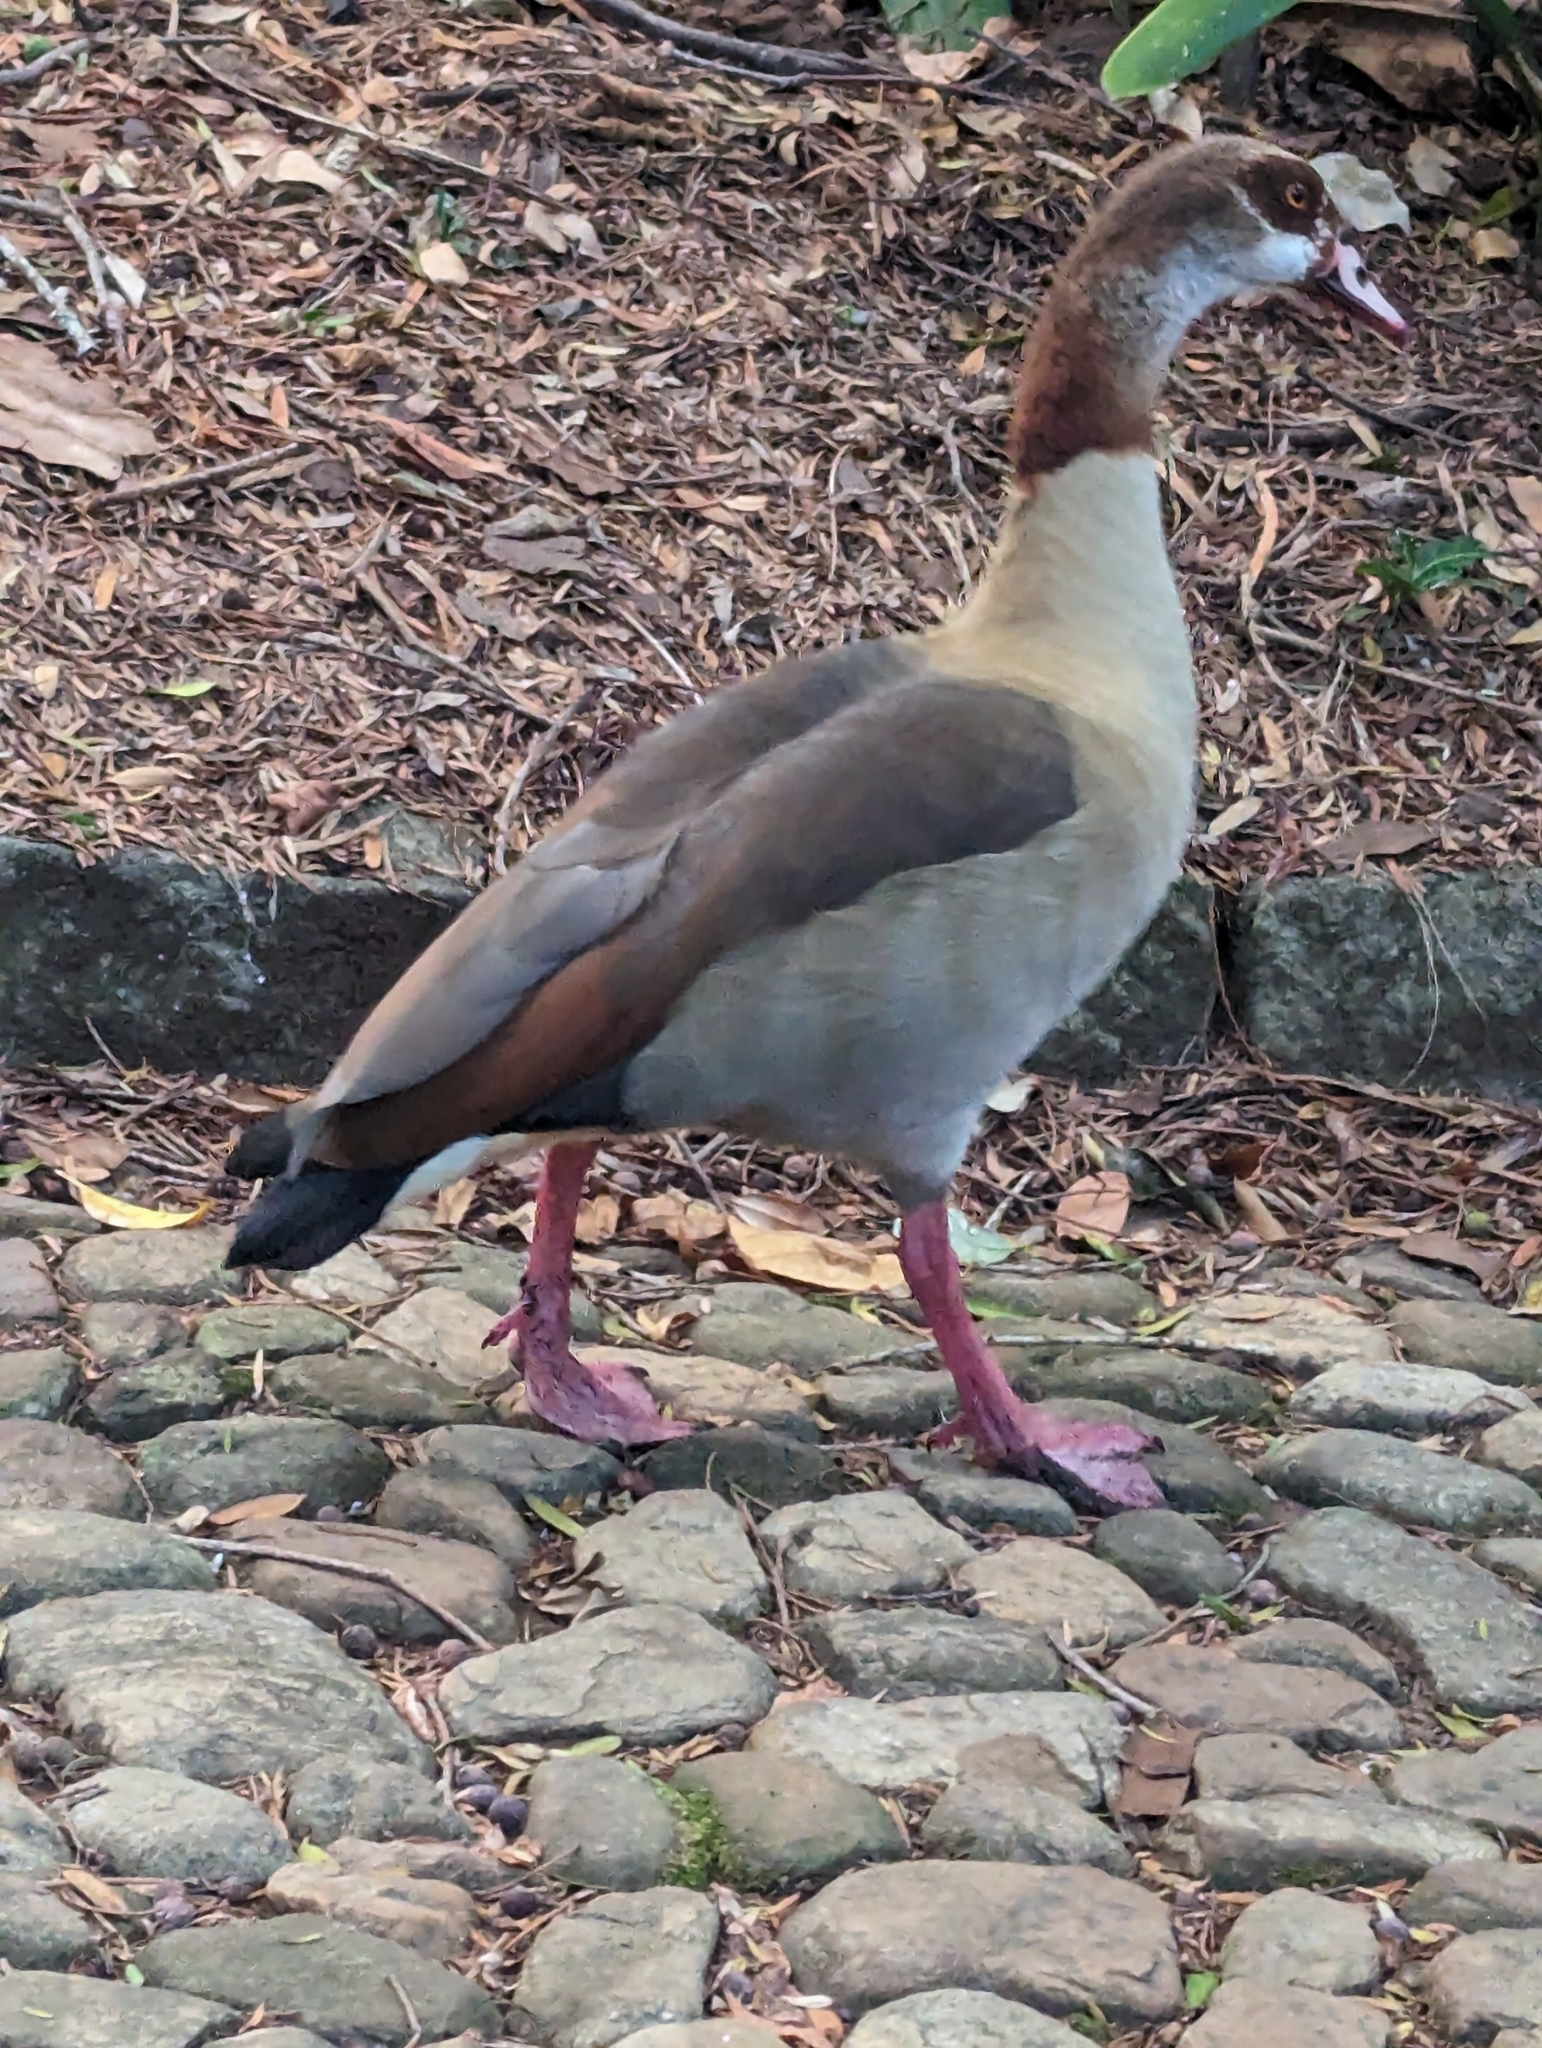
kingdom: Animalia
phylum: Chordata
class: Aves
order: Anseriformes
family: Anatidae
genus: Alopochen
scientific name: Alopochen aegyptiaca
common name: Egyptian goose
